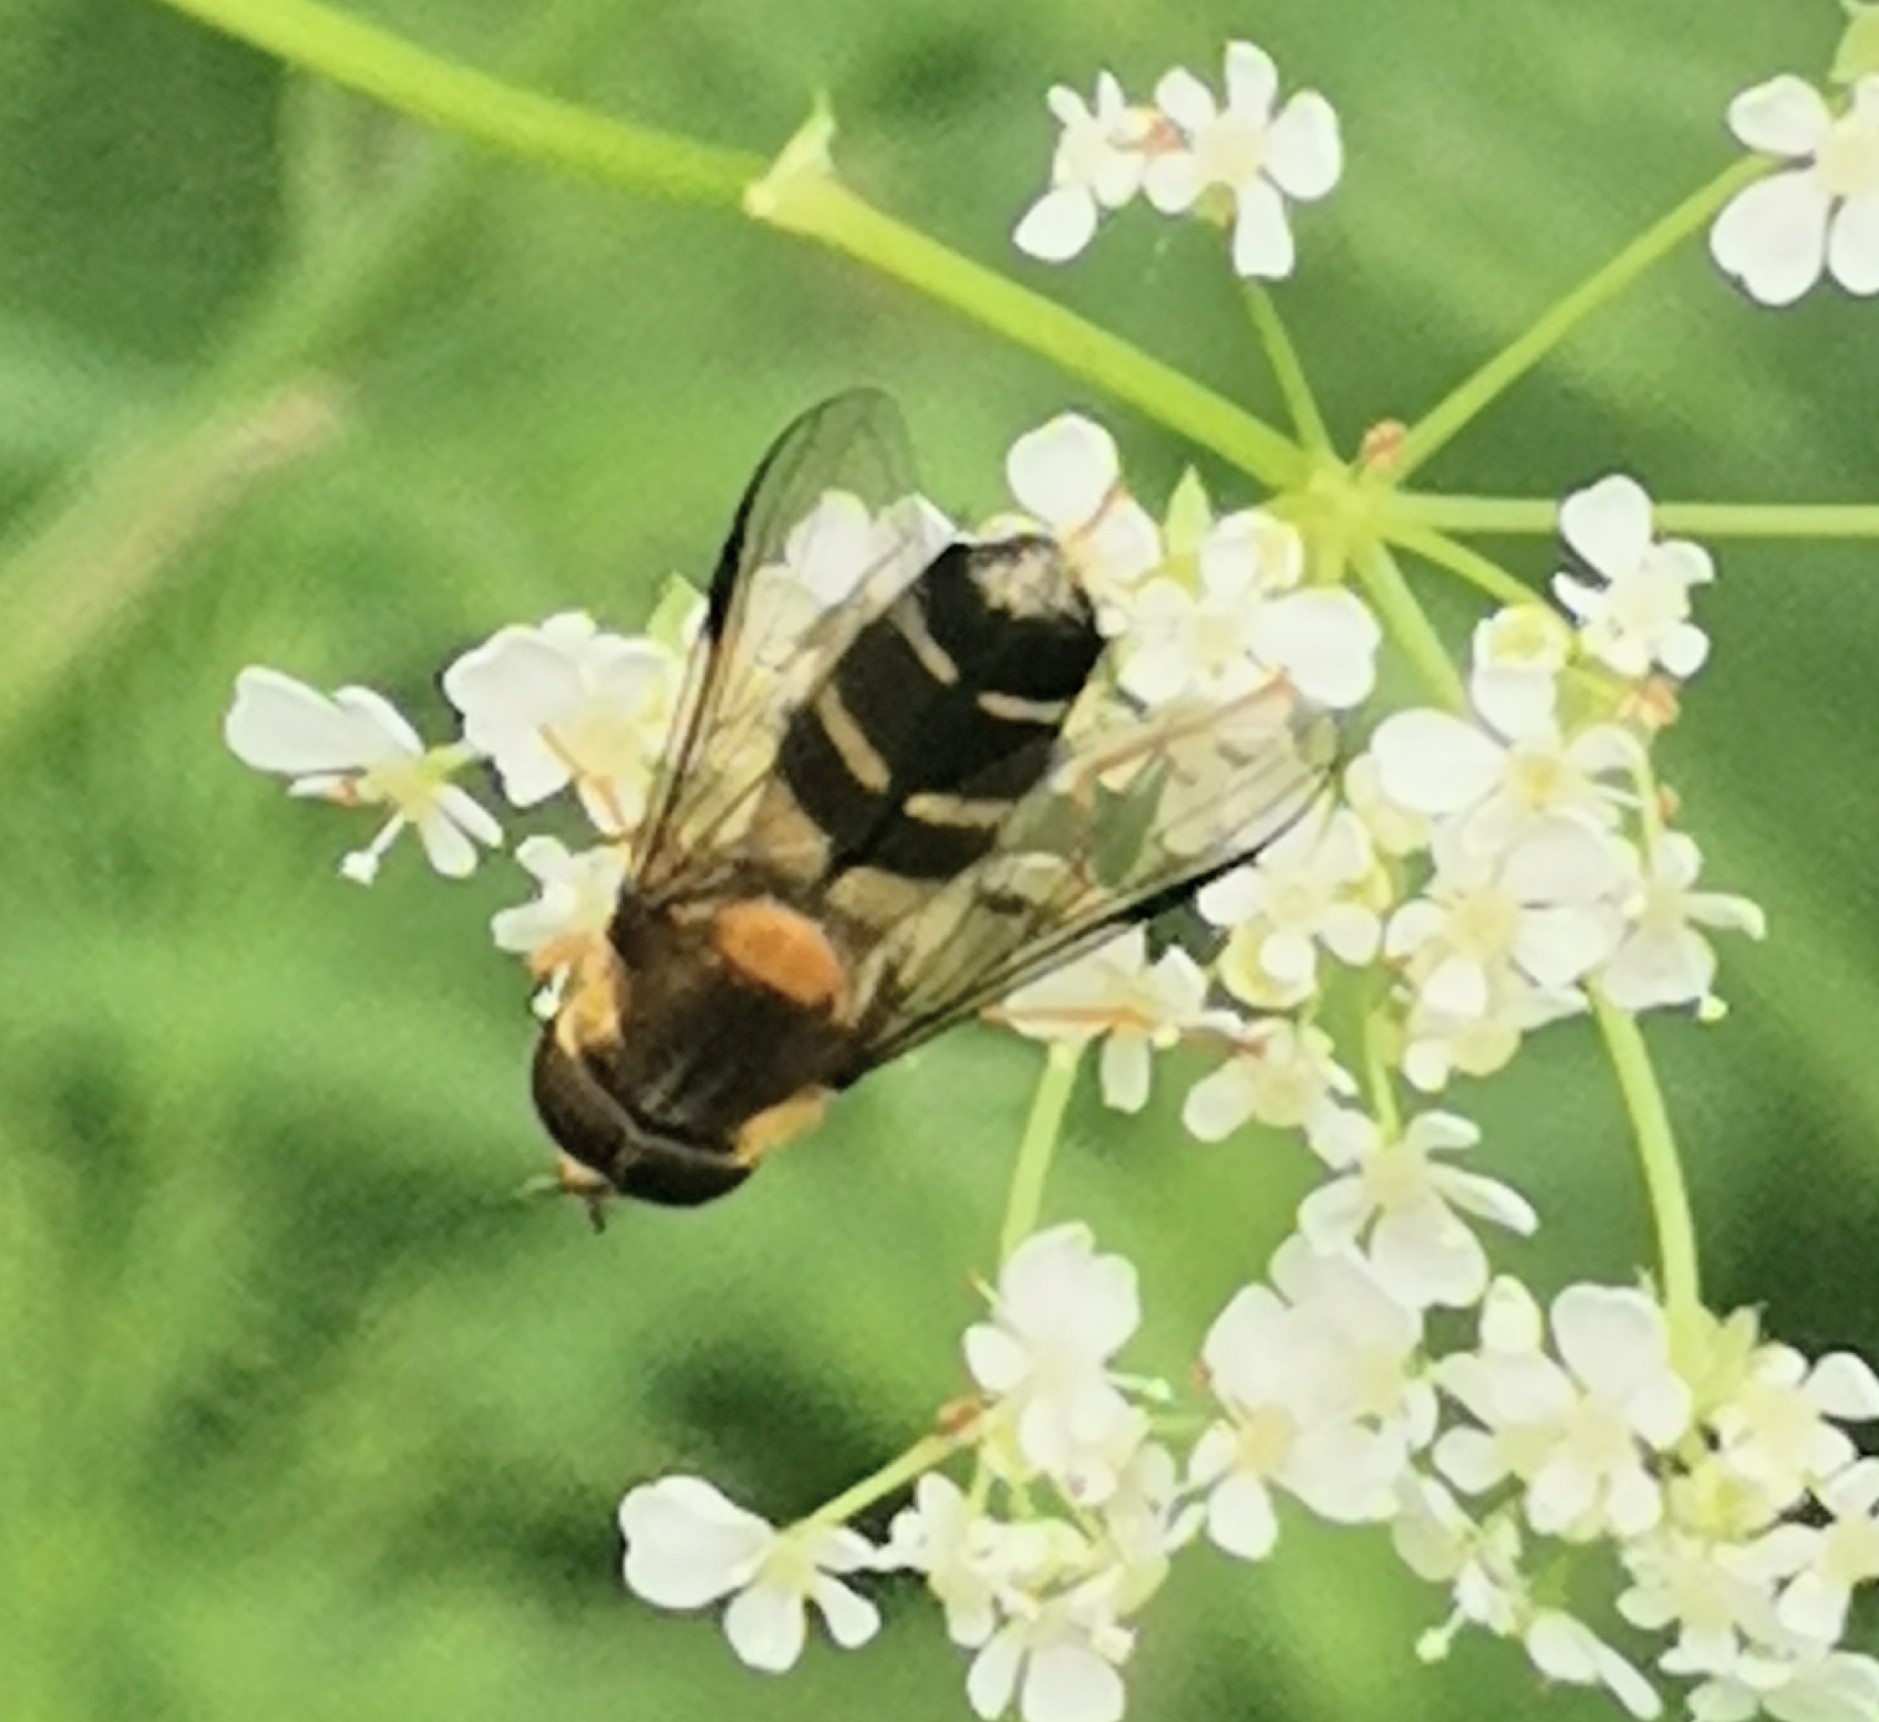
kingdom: Animalia
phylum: Arthropoda
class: Insecta
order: Diptera
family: Syrphidae
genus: Leucozona
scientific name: Leucozona laternaria
